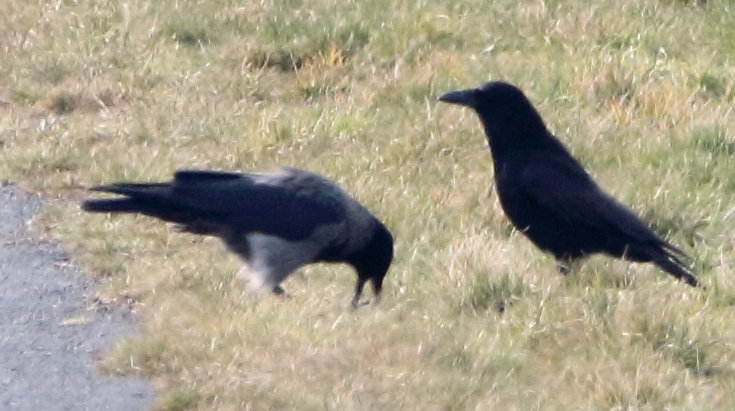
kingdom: Animalia
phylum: Chordata
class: Aves
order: Passeriformes
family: Corvidae
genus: Corvus
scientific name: Corvus
